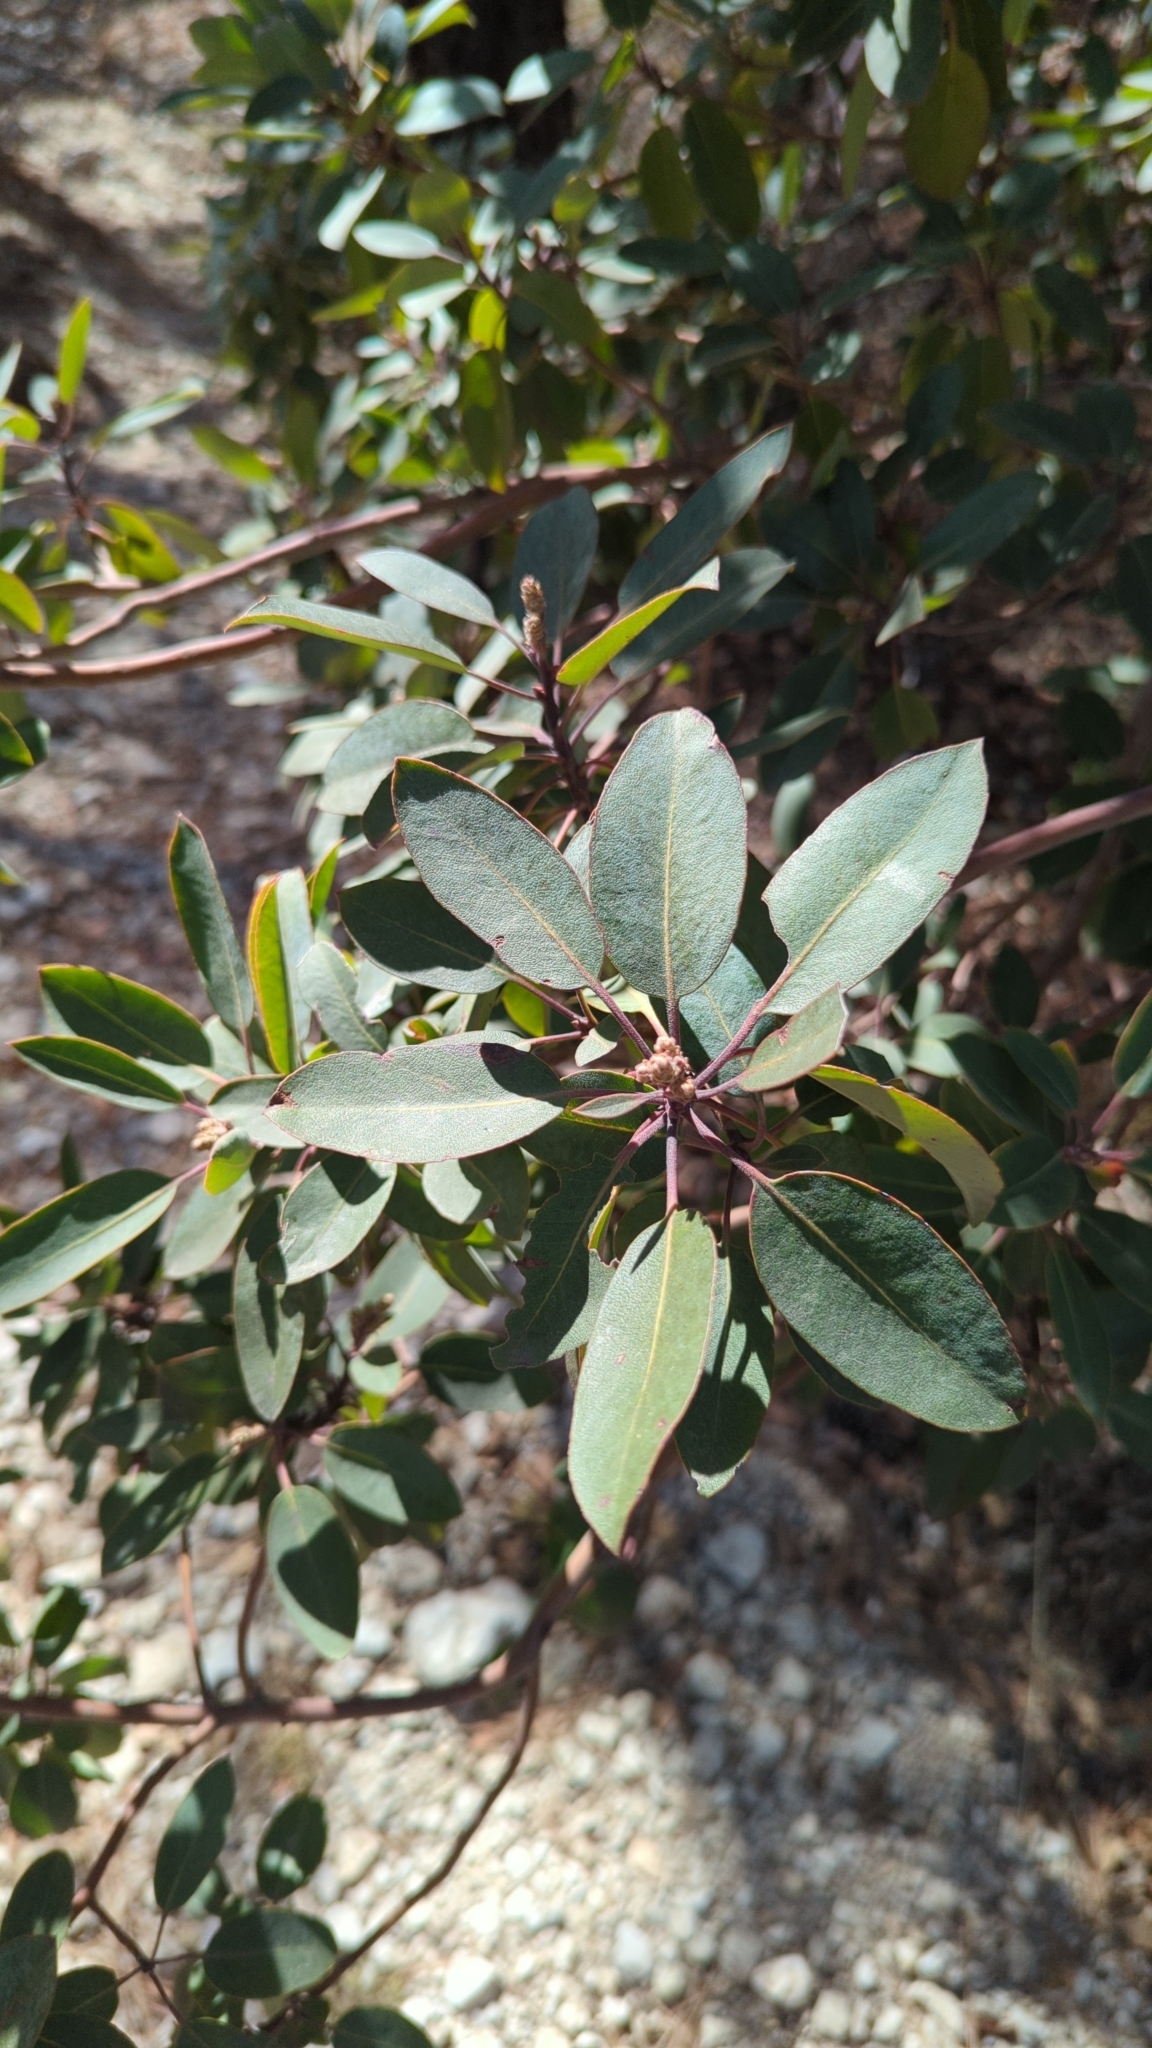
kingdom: Plantae
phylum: Tracheophyta
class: Magnoliopsida
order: Ericales
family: Ericaceae
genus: Arbutus
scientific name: Arbutus xalapensis
